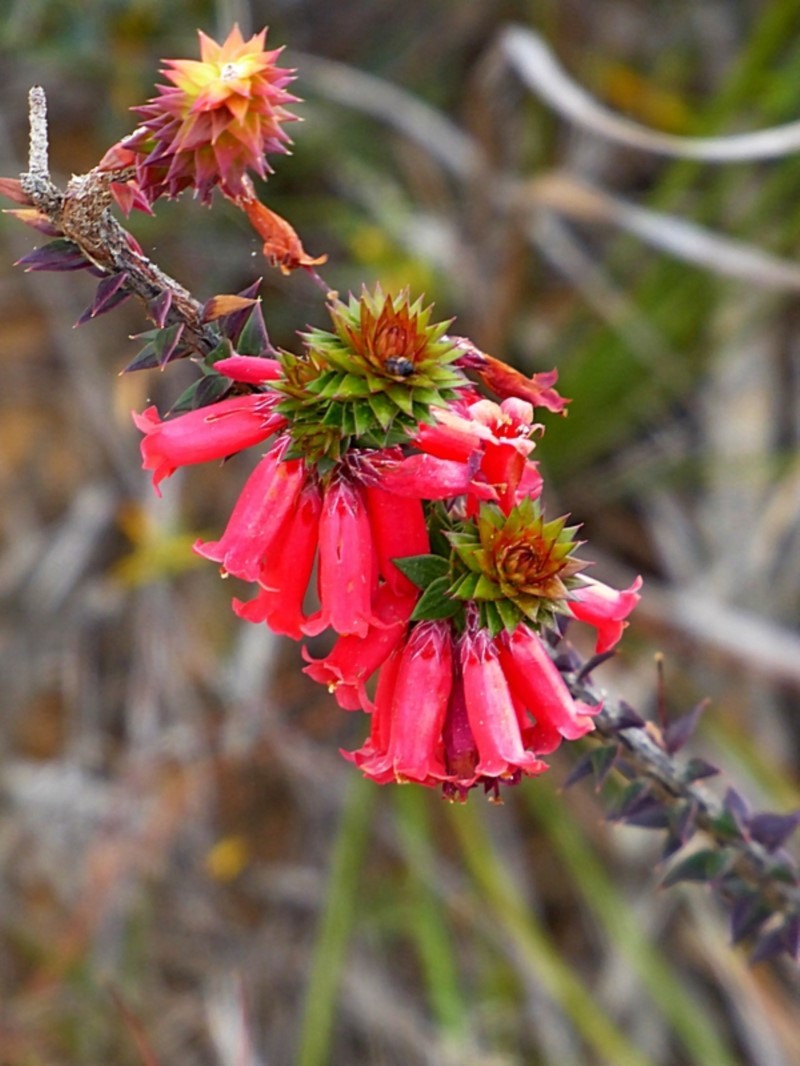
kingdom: Plantae
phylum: Tracheophyta
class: Magnoliopsida
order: Ericales
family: Ericaceae
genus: Epacris
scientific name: Epacris impressa
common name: Common-heath
